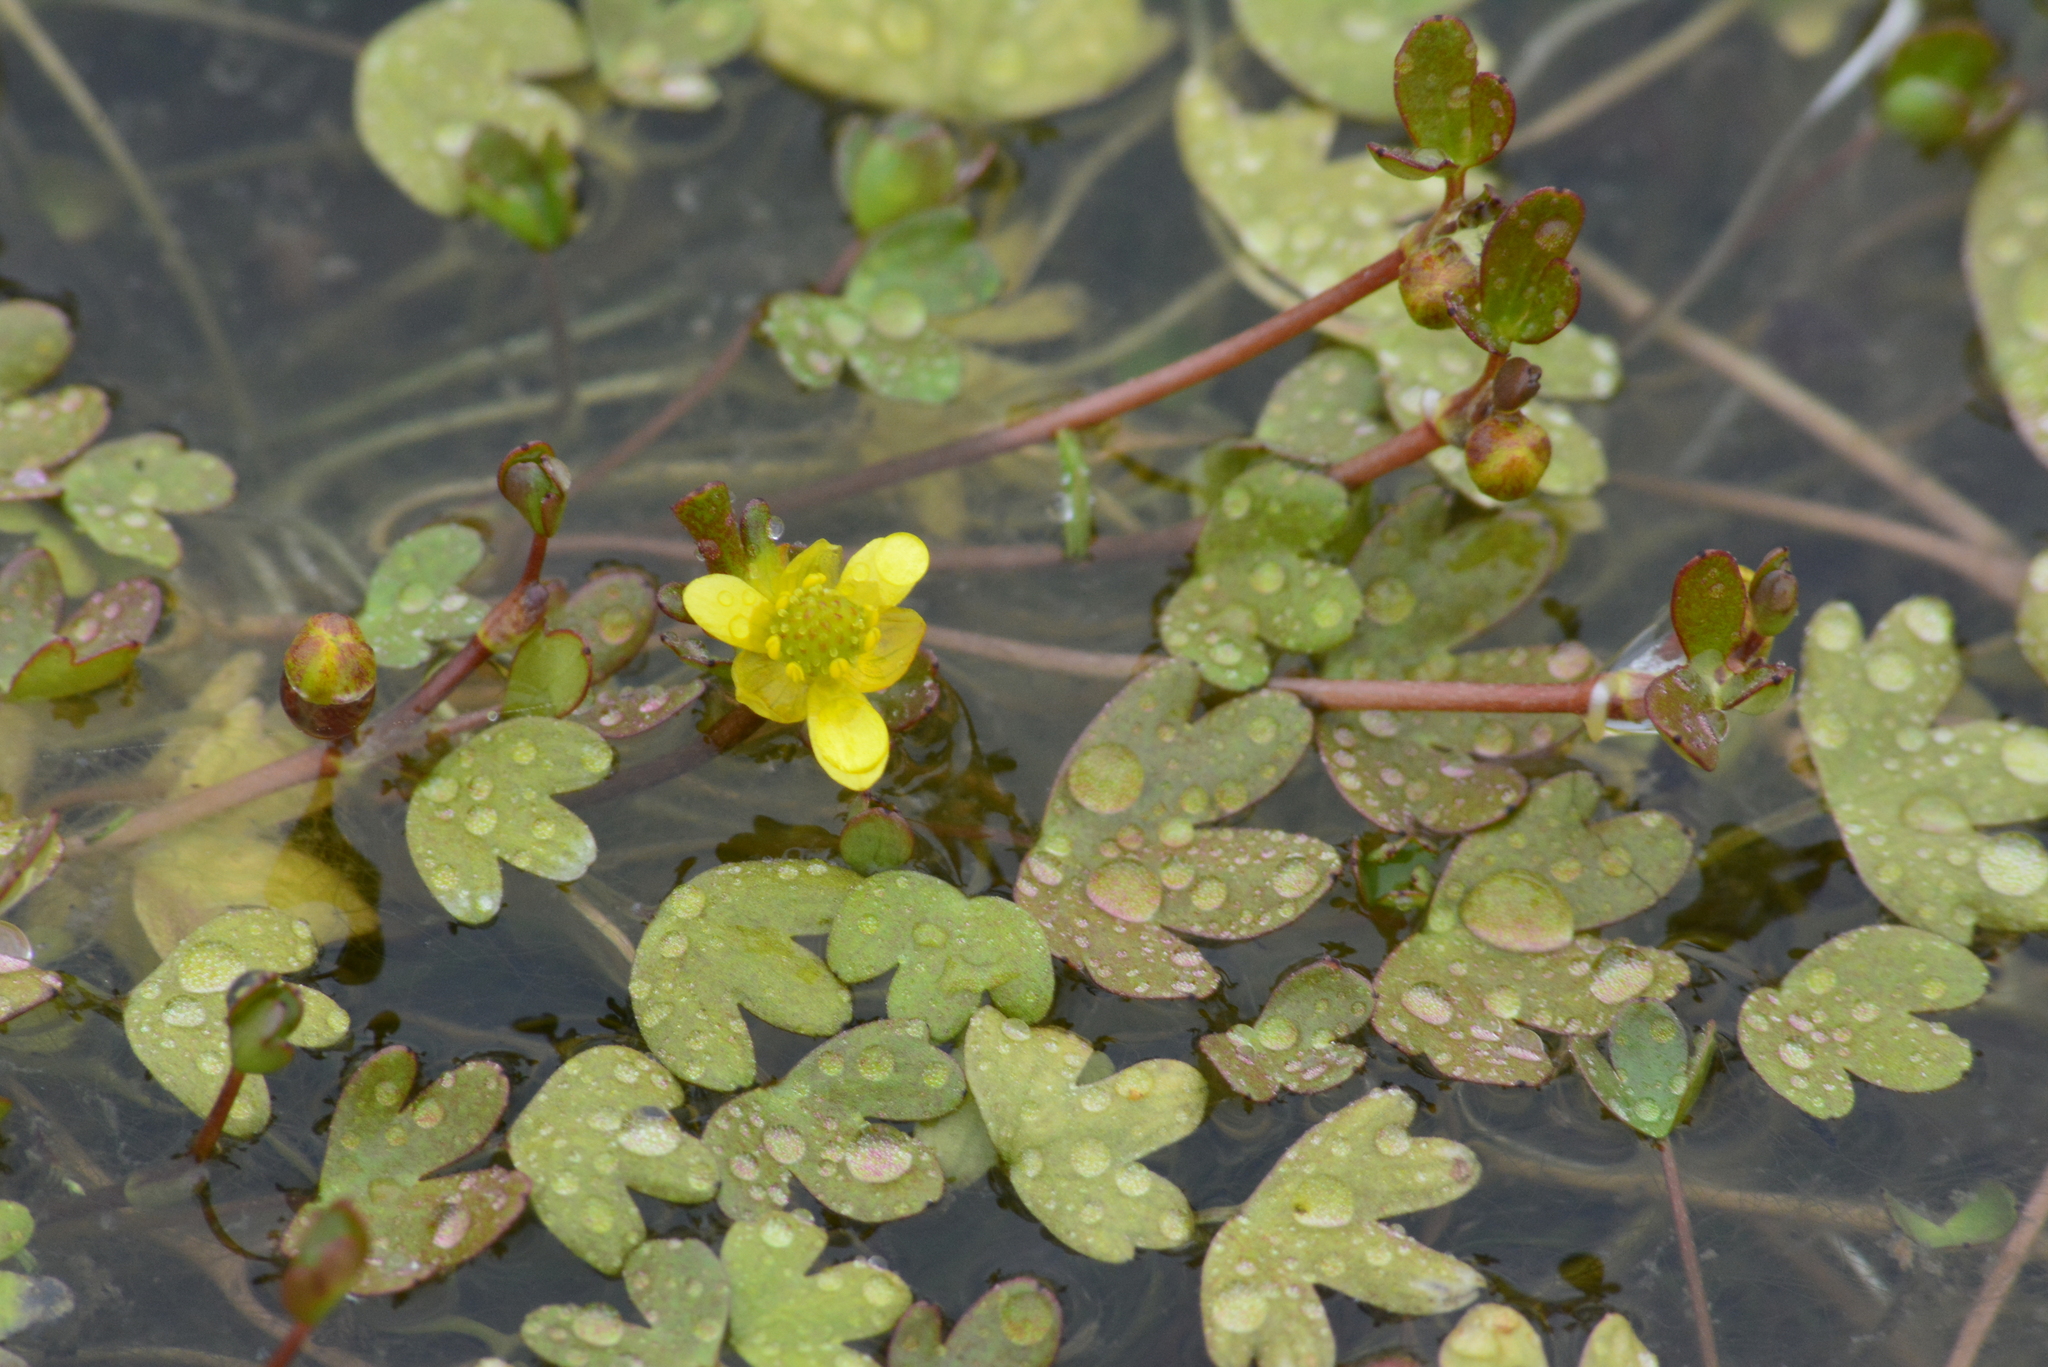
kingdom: Plantae
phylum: Tracheophyta
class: Magnoliopsida
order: Ranunculales
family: Ranunculaceae
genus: Ranunculus
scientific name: Ranunculus hyperboreus
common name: Arctic buttercup
